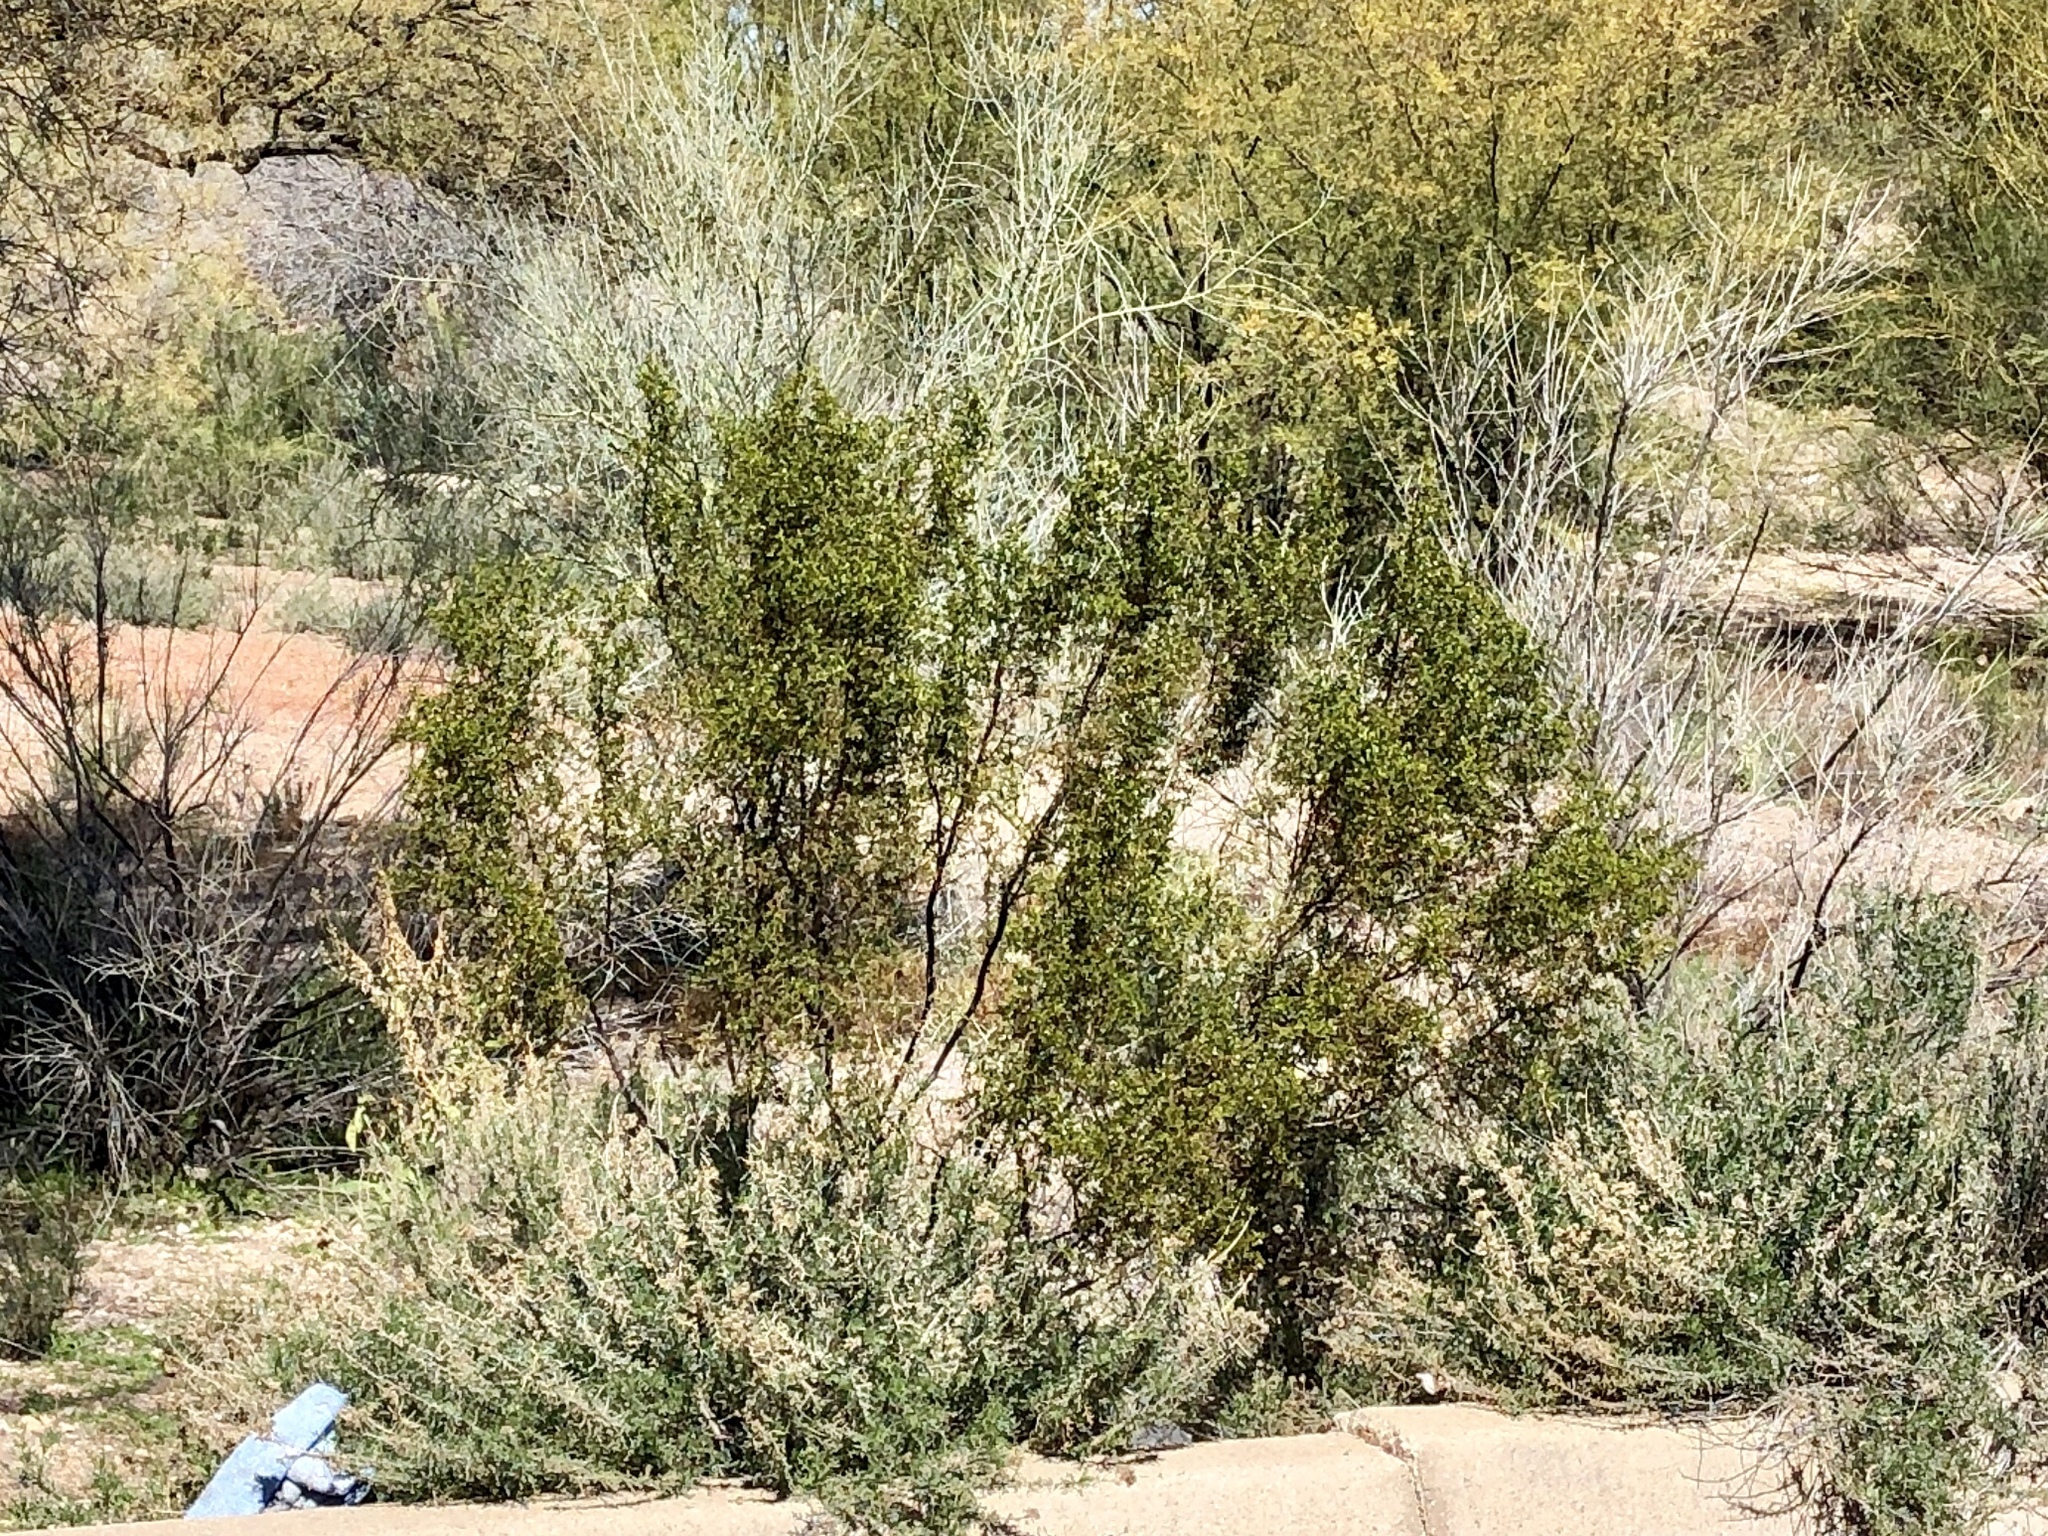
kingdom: Plantae
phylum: Tracheophyta
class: Magnoliopsida
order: Zygophyllales
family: Zygophyllaceae
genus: Larrea
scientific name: Larrea tridentata
